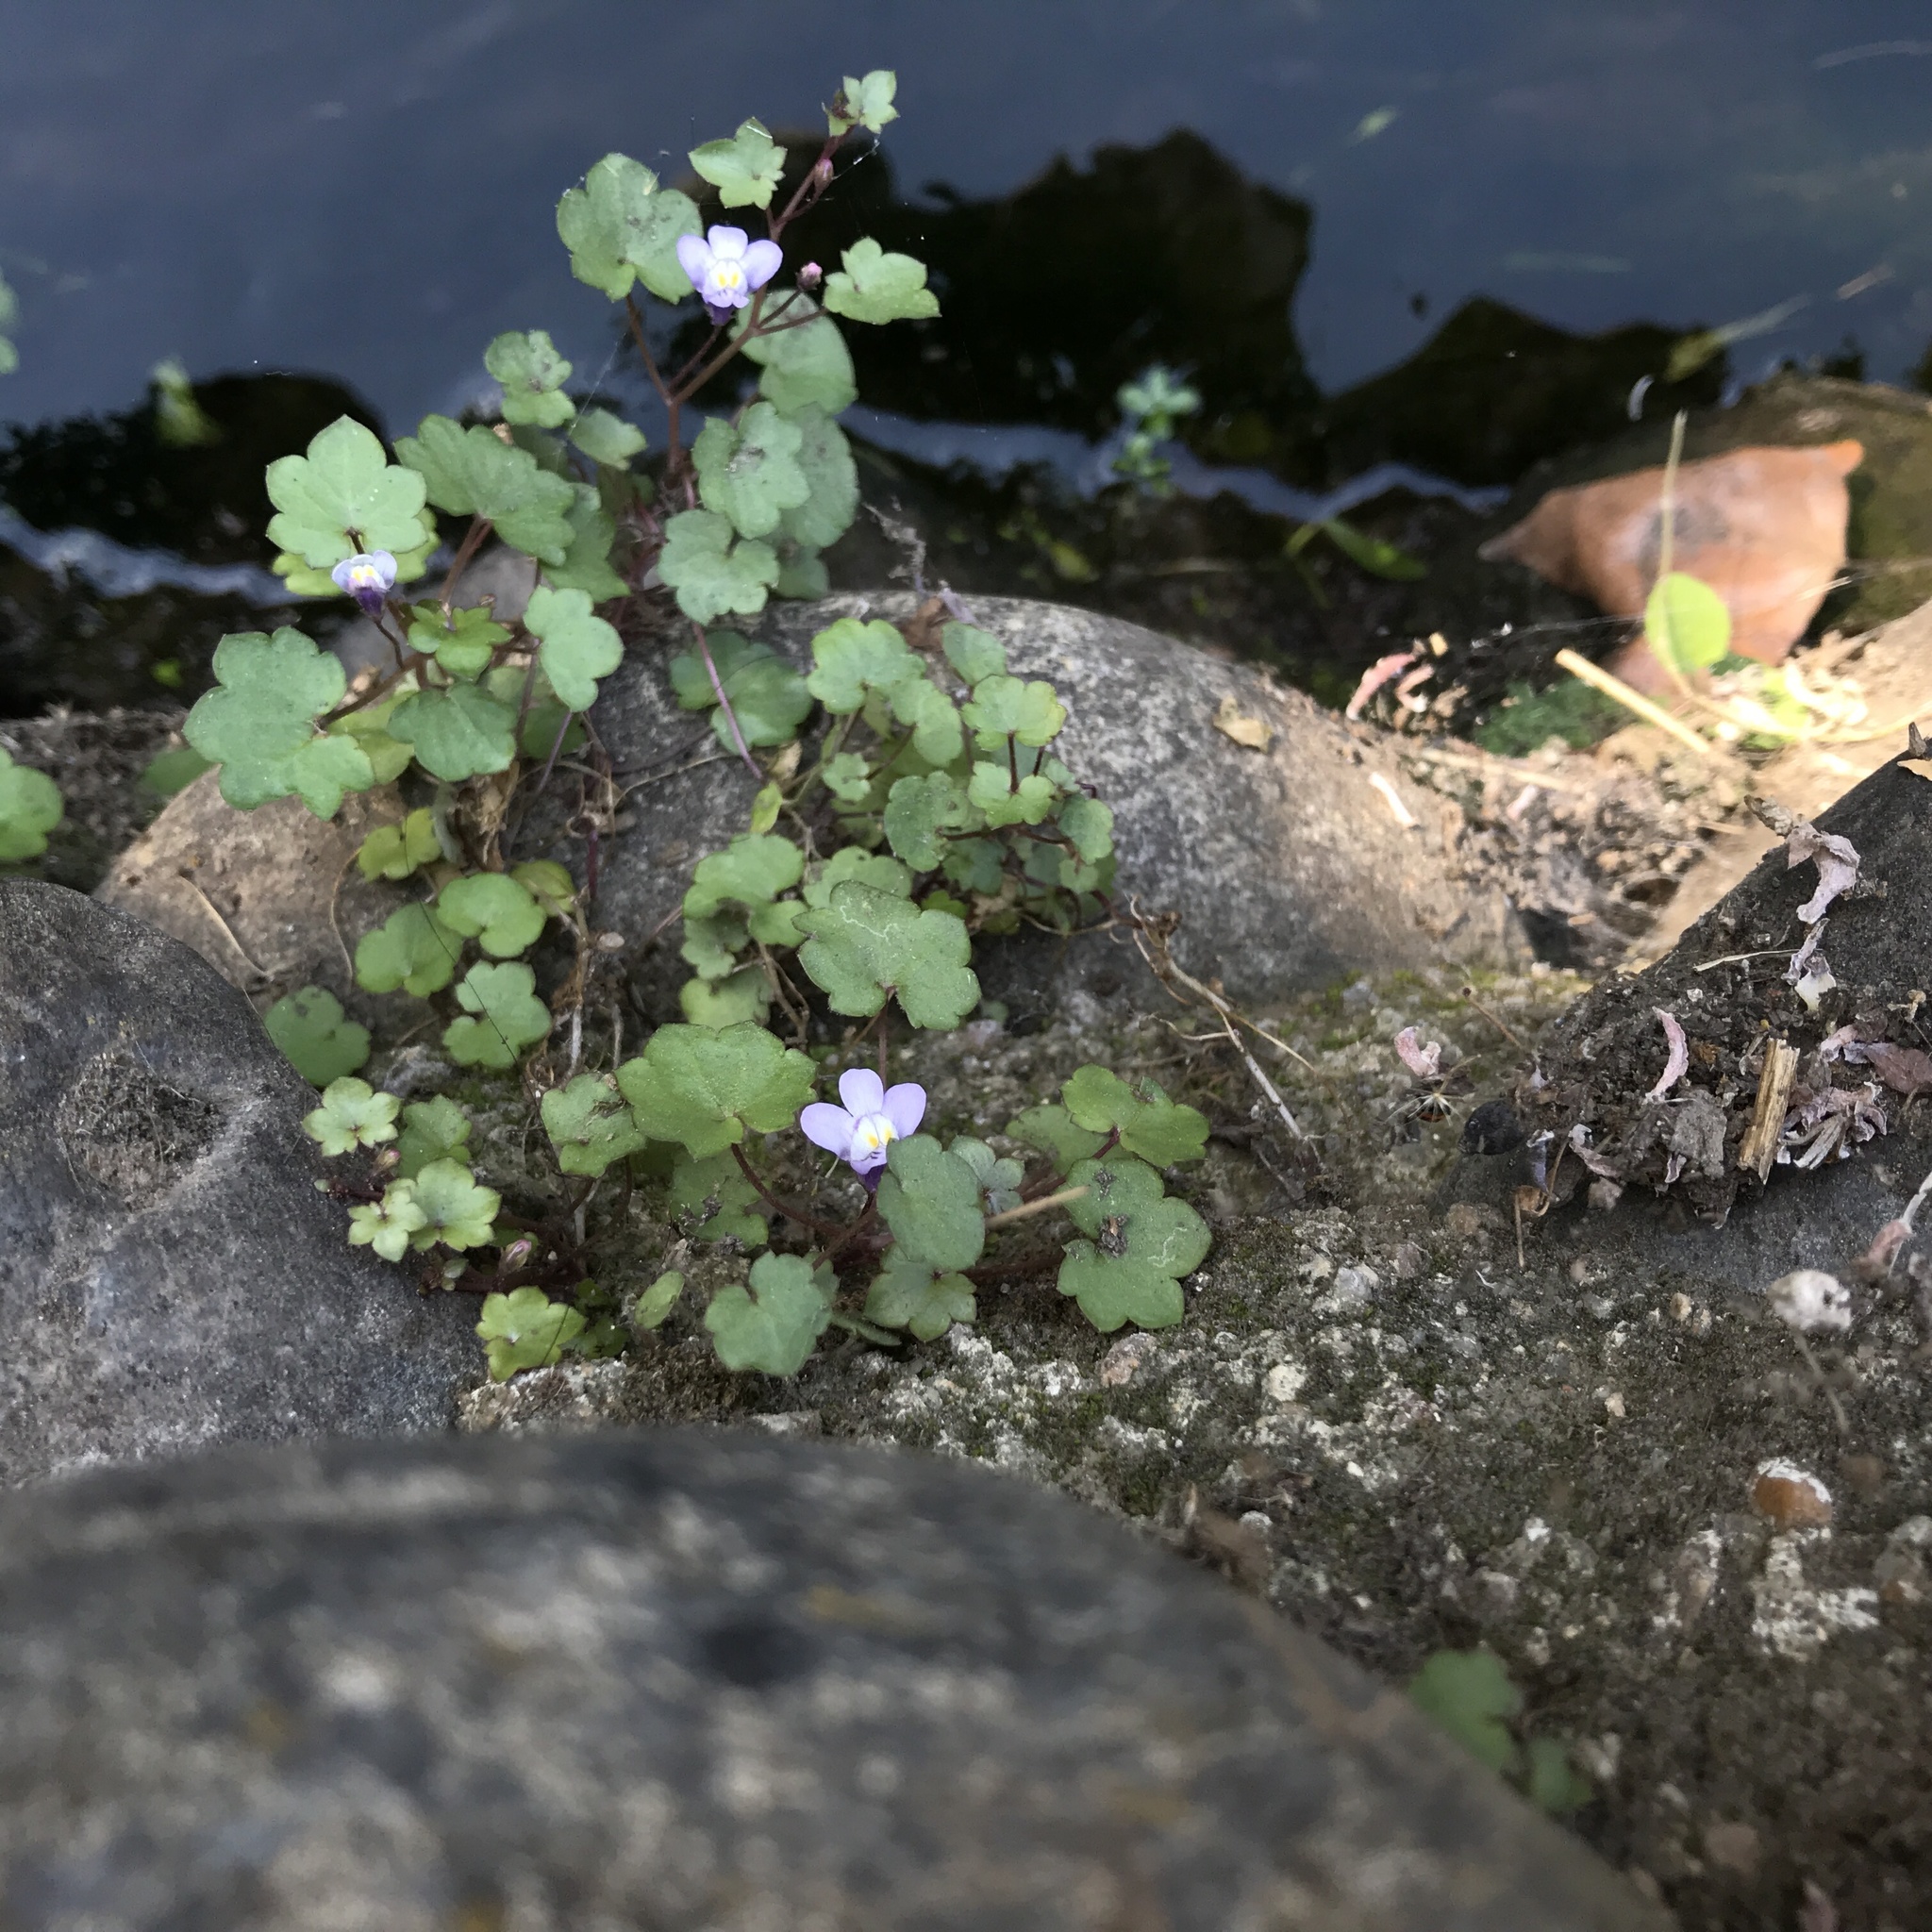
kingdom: Plantae
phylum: Tracheophyta
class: Magnoliopsida
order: Lamiales
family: Plantaginaceae
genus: Cymbalaria
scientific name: Cymbalaria muralis
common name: Ivy-leaved toadflax
